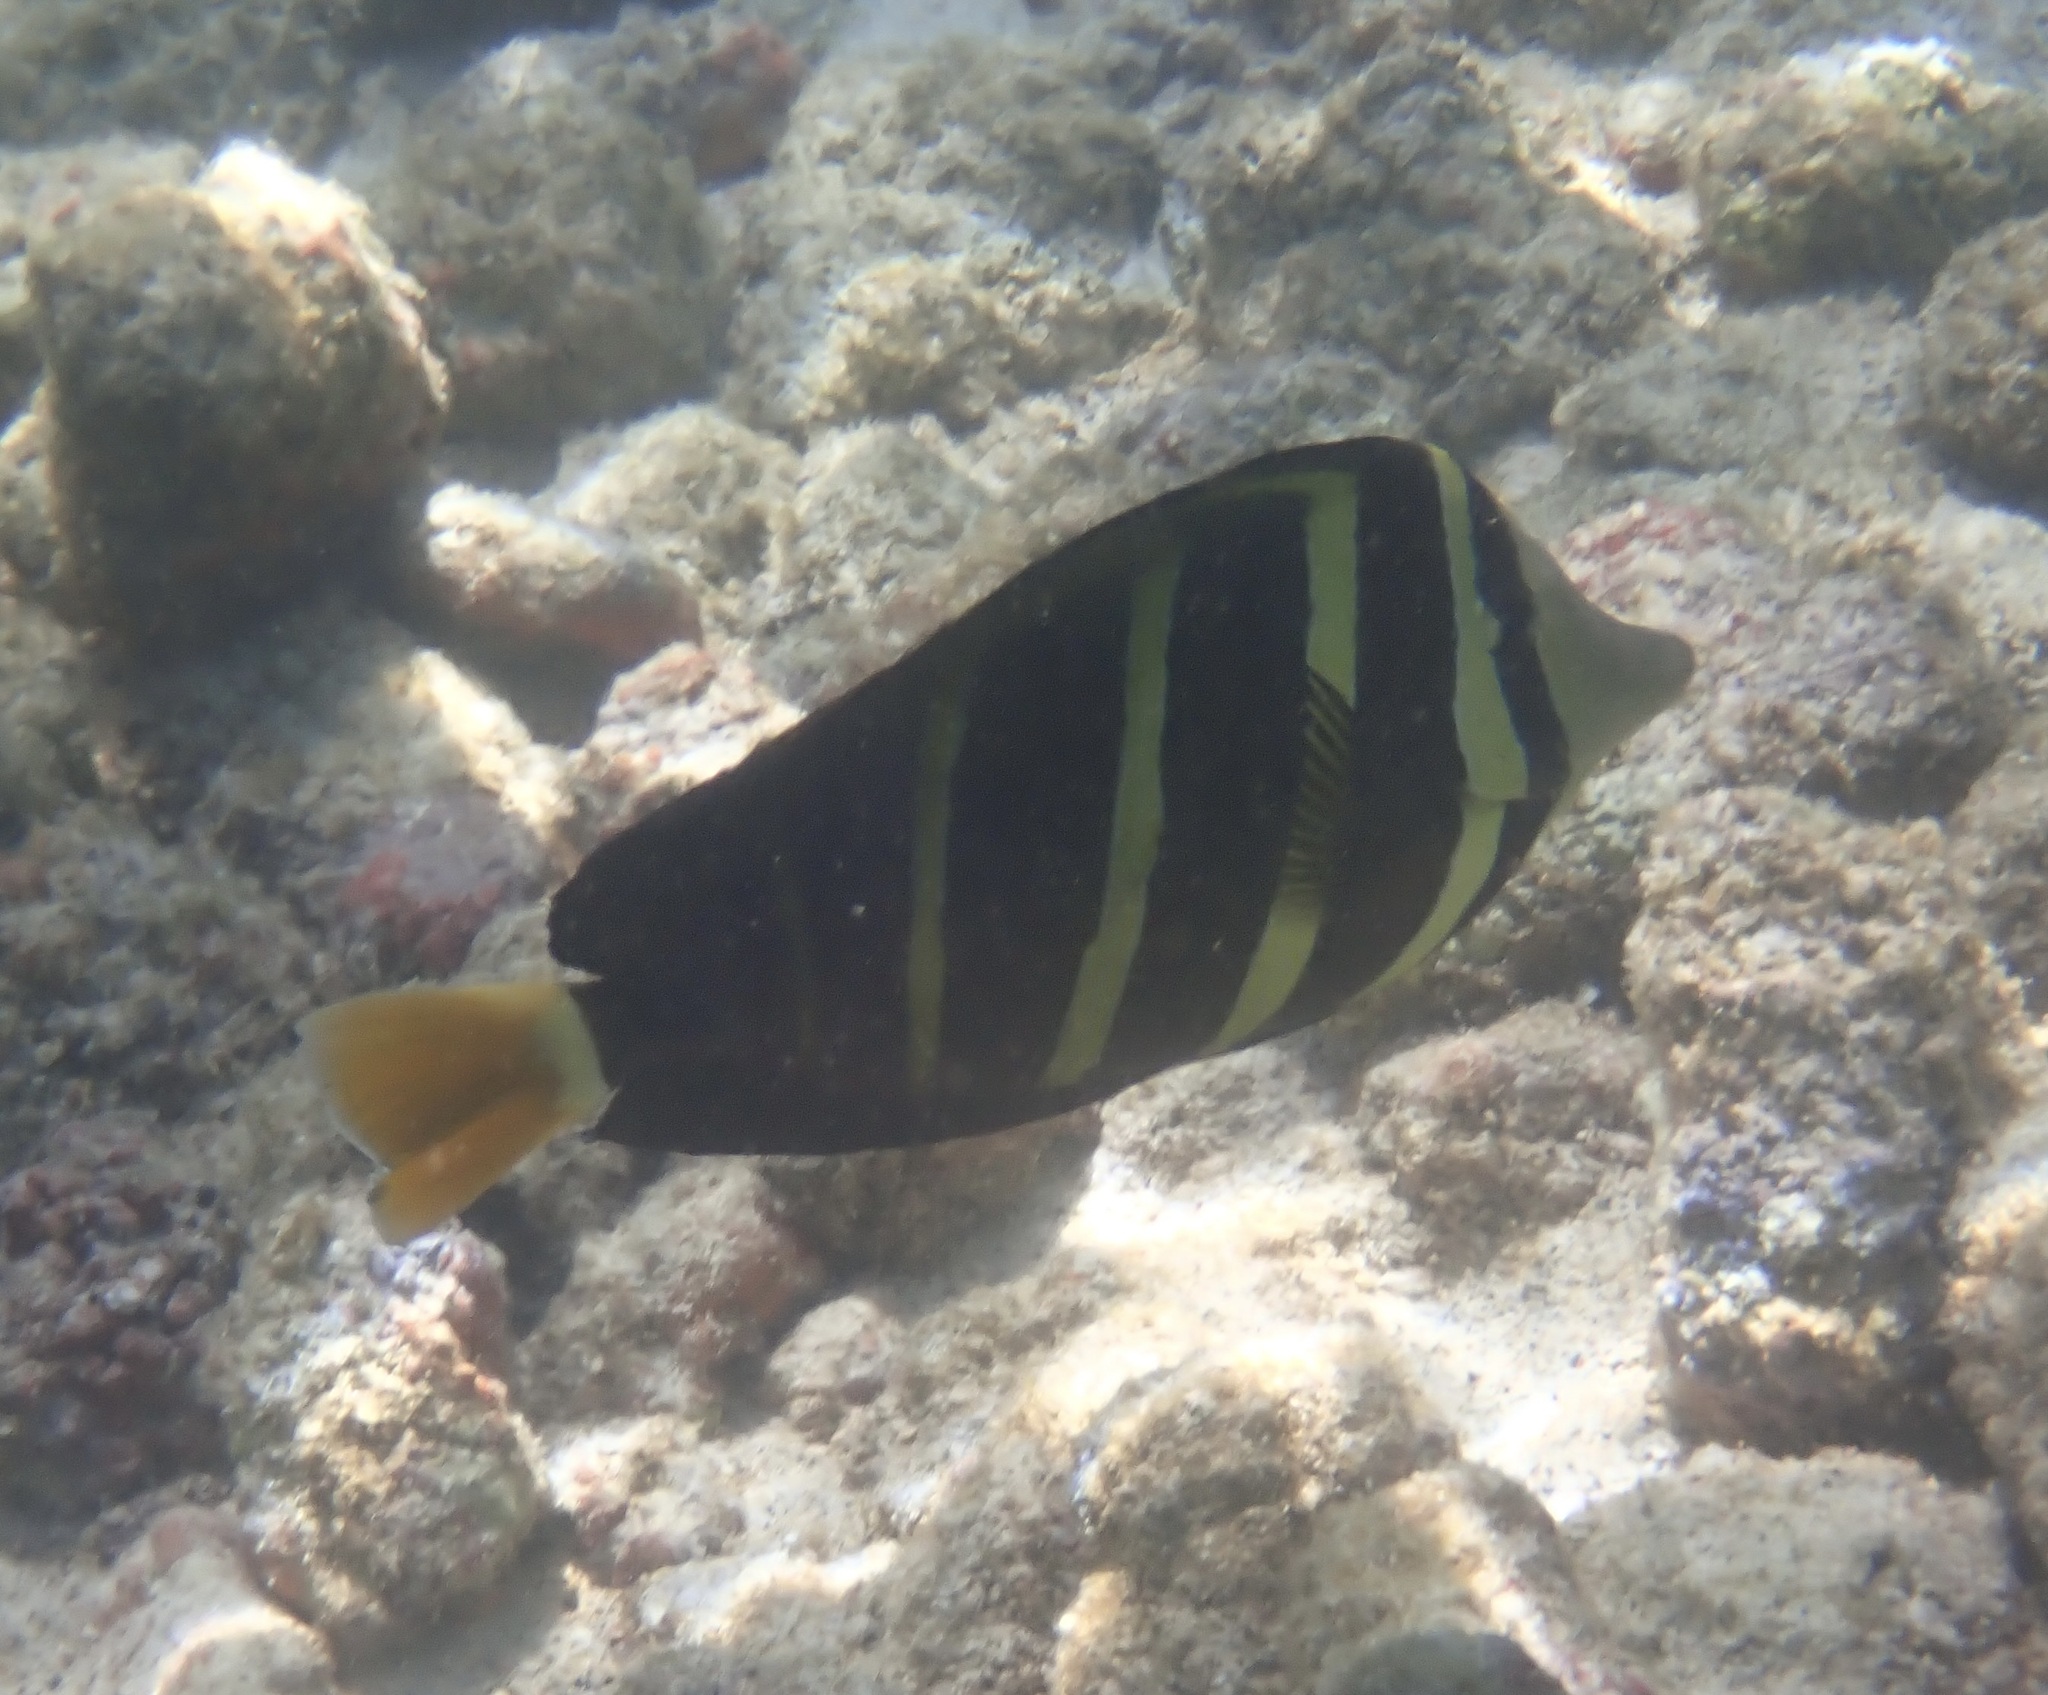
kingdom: Animalia
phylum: Chordata
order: Perciformes
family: Acanthuridae
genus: Zebrasoma
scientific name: Zebrasoma veliferum
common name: Sailfin surgeonfish
